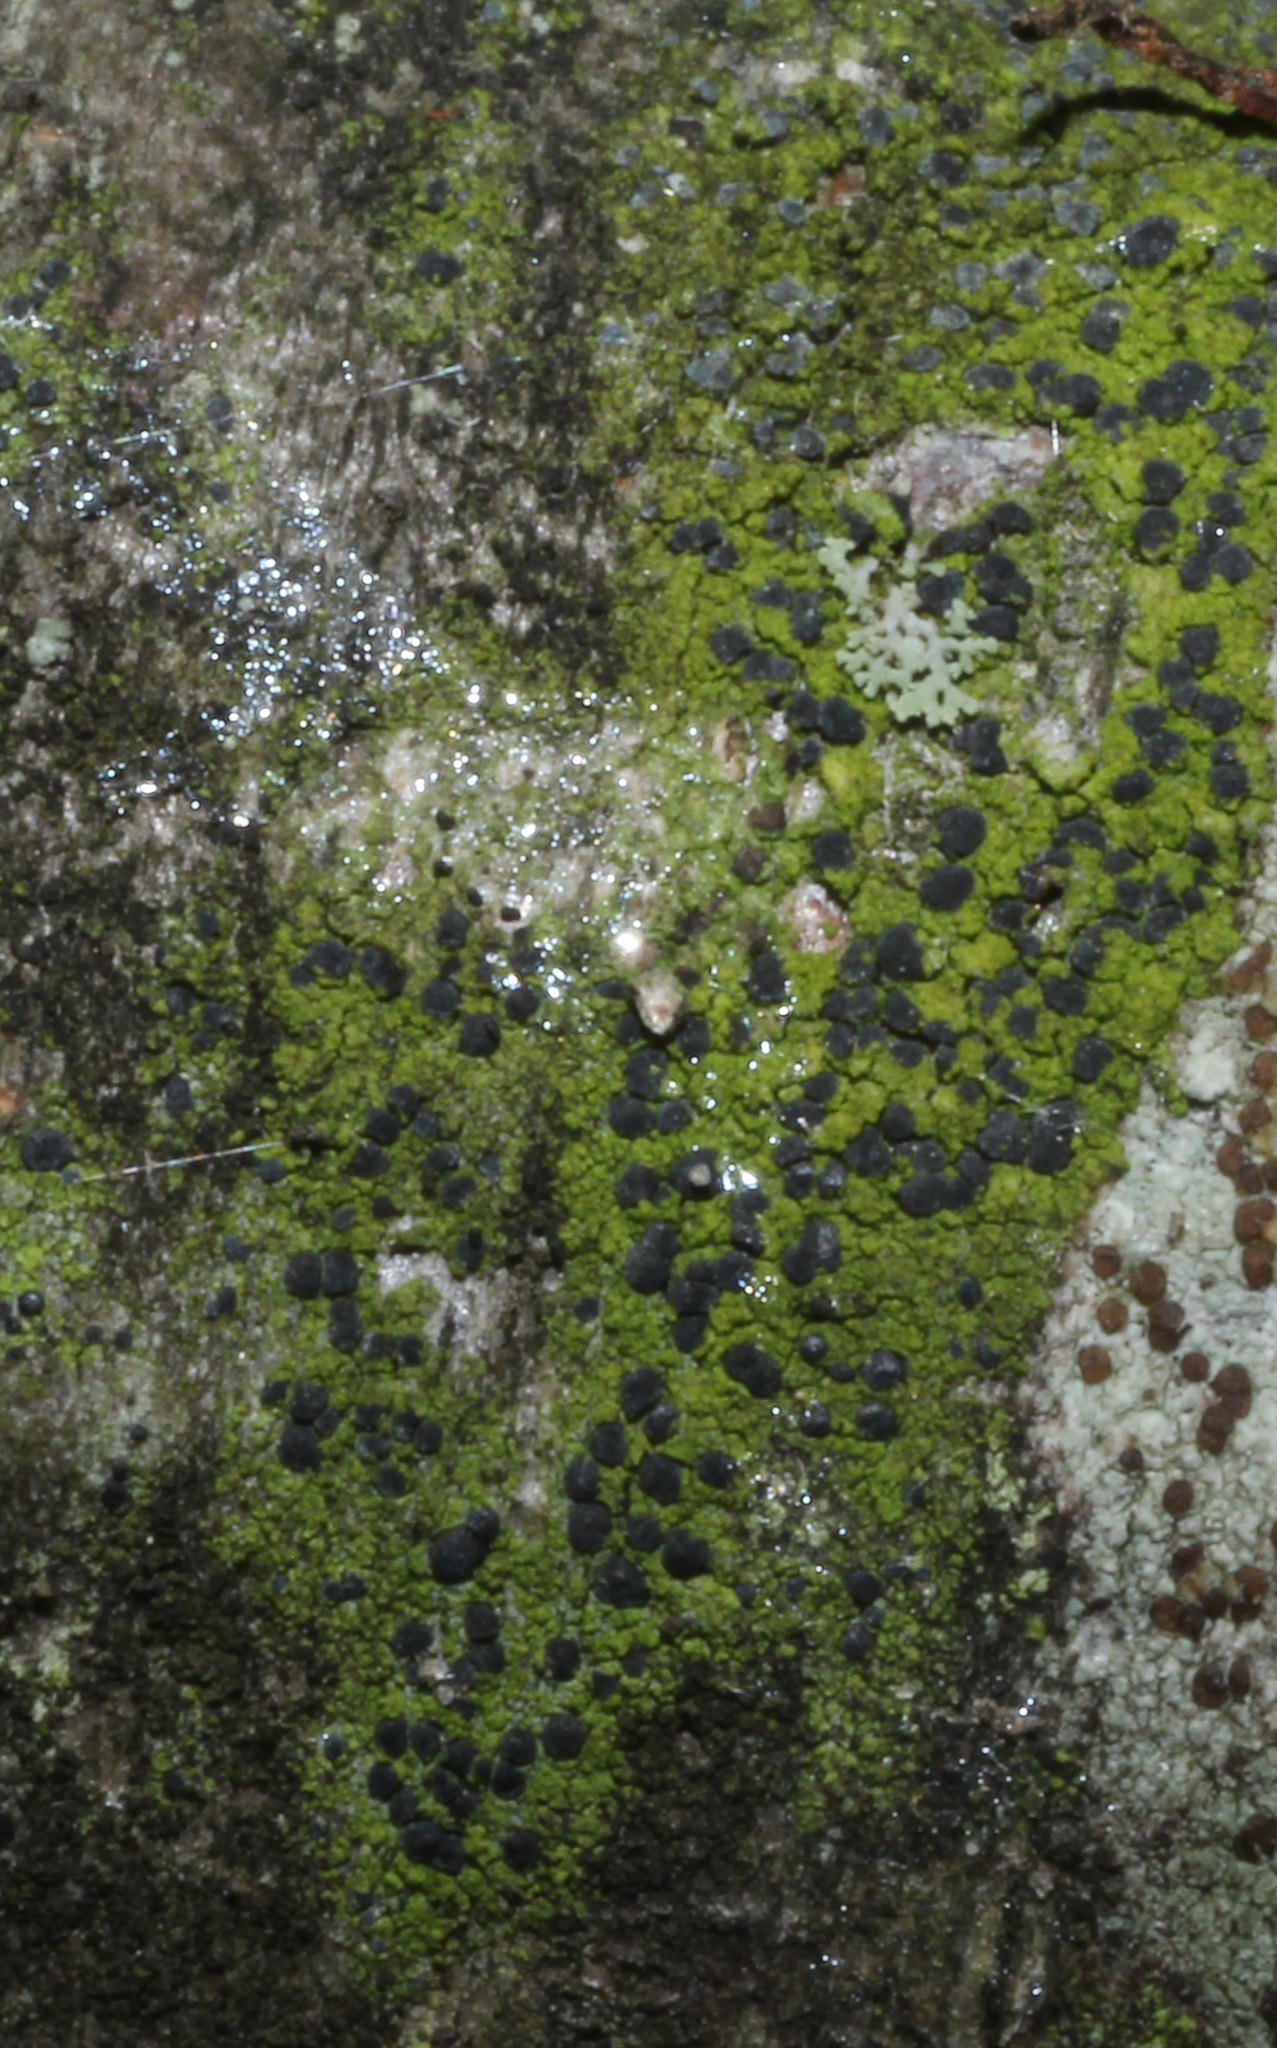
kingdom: Fungi
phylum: Ascomycota
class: Arthoniomycetes
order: Arthoniales
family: Chrysotrichaceae
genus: Chrysothrix
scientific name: Chrysothrix caesia
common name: Frosted comma lichen
